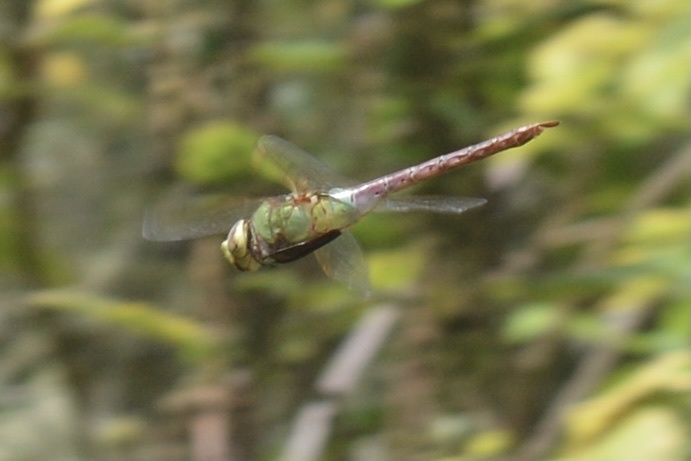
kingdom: Animalia
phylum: Arthropoda
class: Insecta
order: Odonata
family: Aeshnidae
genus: Anax
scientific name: Anax junius
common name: Common green darner
